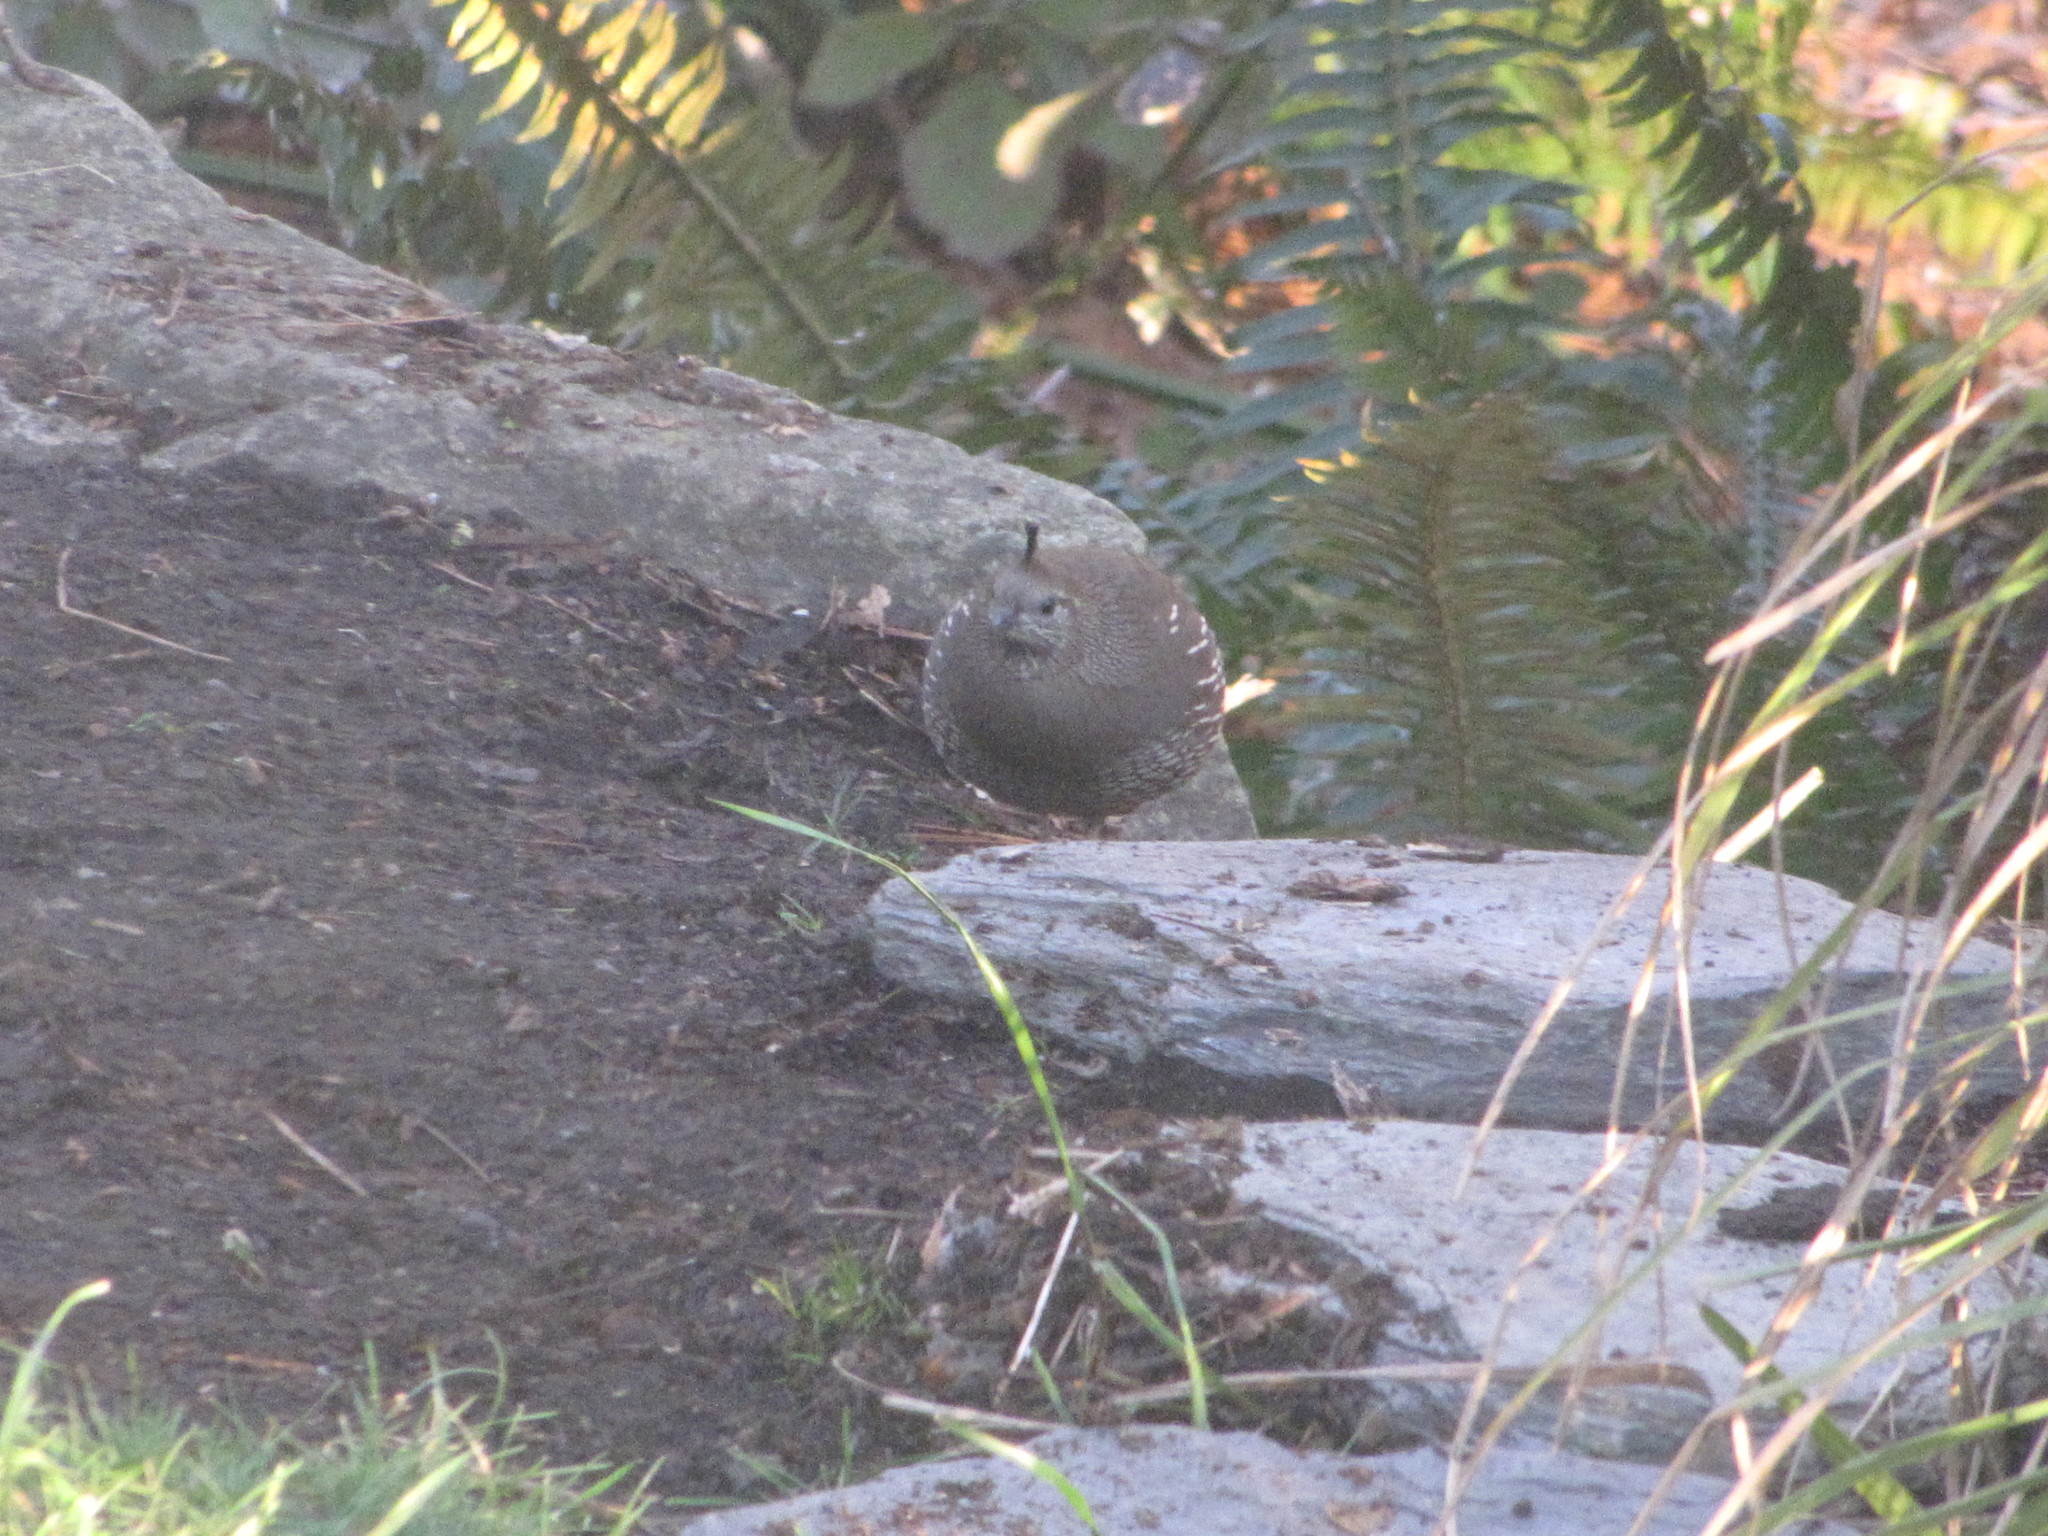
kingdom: Animalia
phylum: Chordata
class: Aves
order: Galliformes
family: Odontophoridae
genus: Callipepla
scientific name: Callipepla californica
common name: California quail
